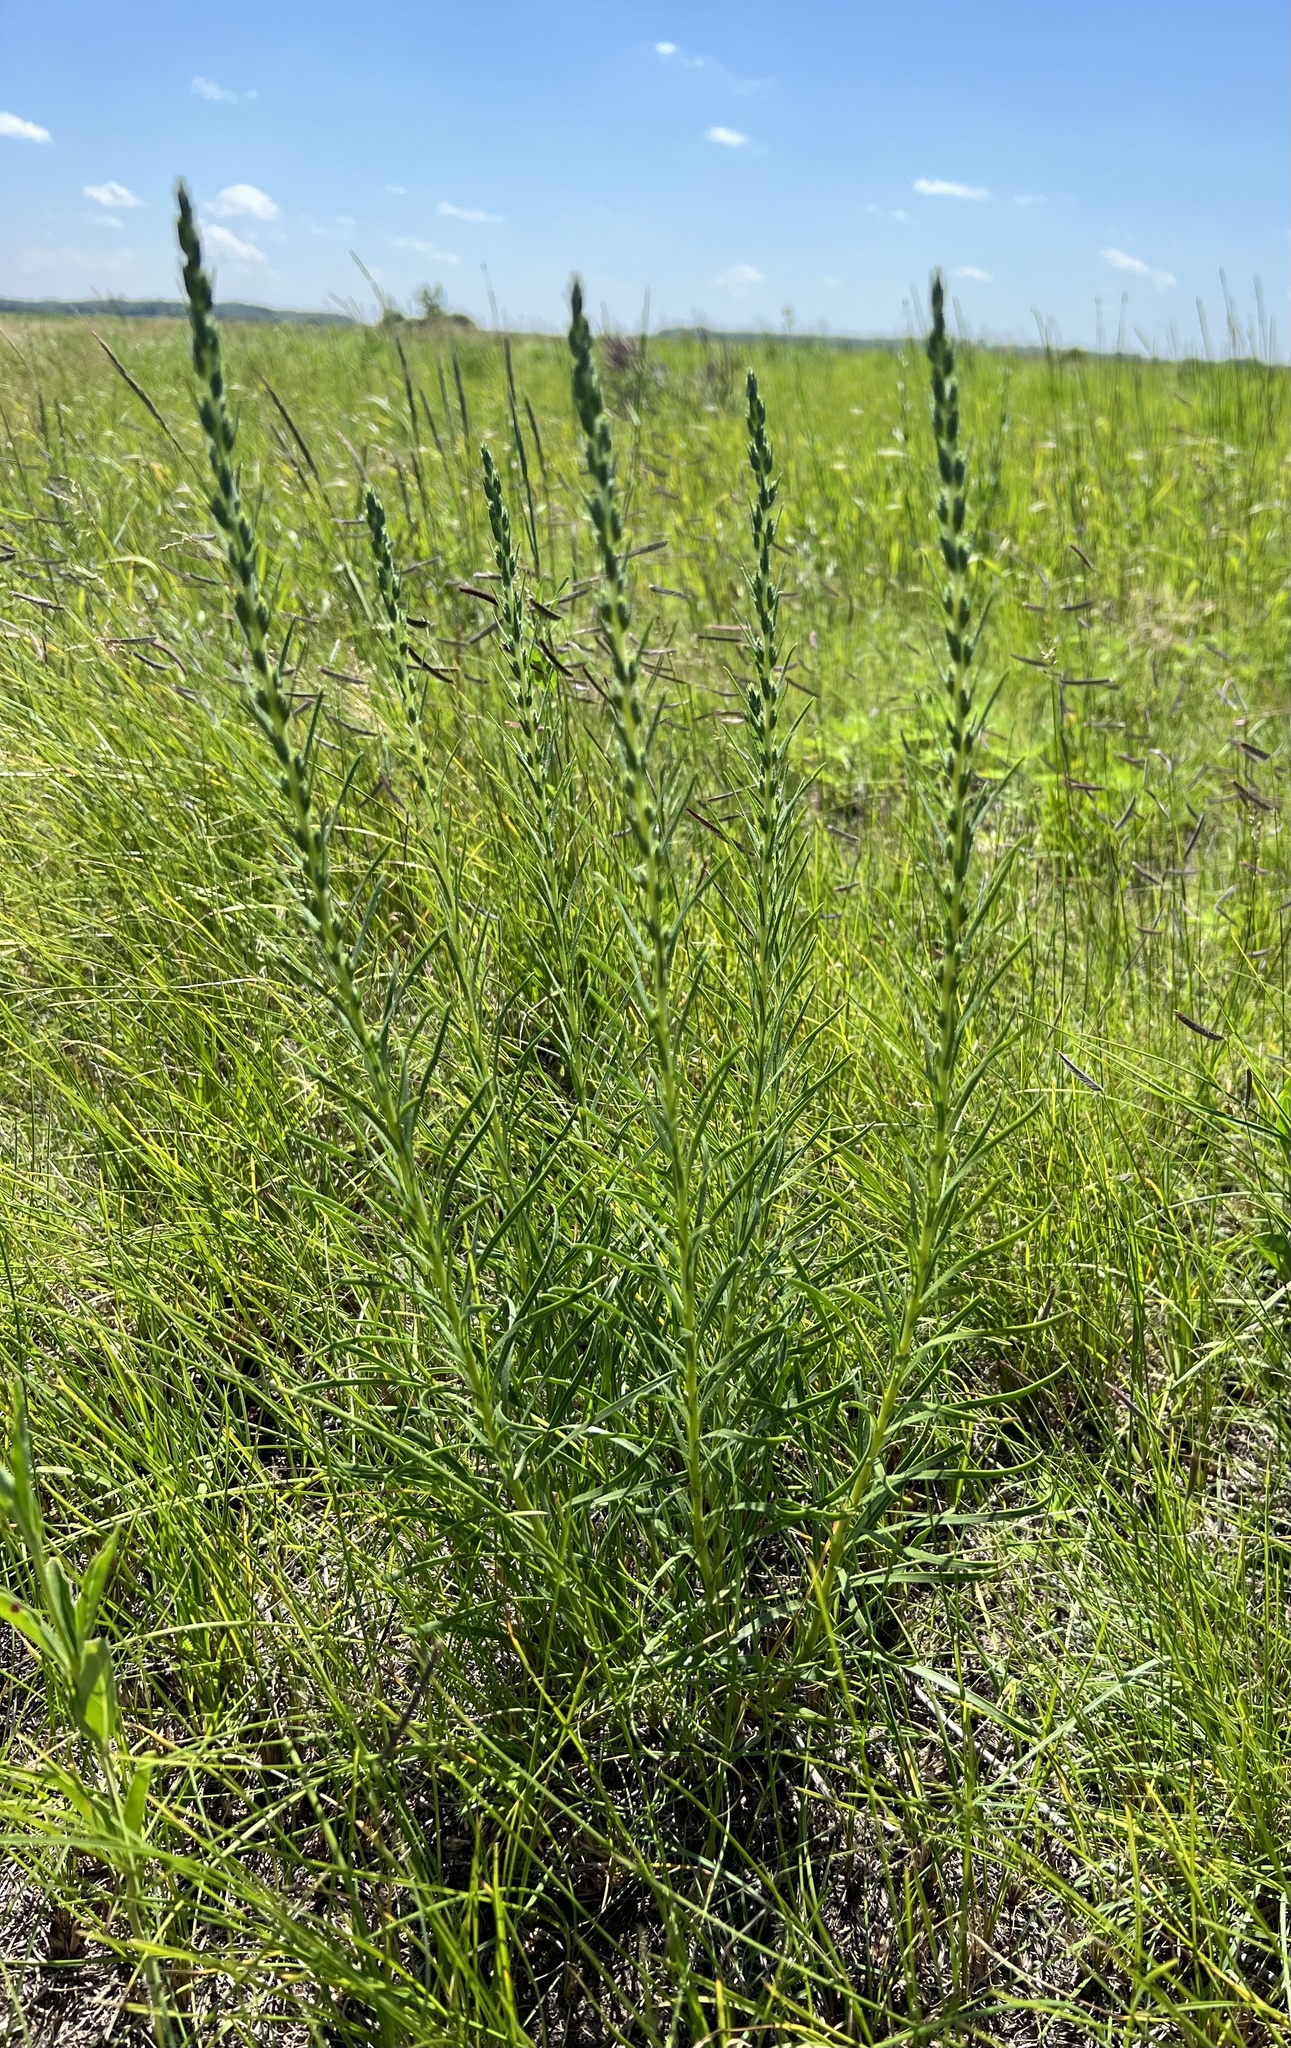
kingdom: Plantae
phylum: Tracheophyta
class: Magnoliopsida
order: Asterales
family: Asteraceae
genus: Liatris
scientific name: Liatris punctata
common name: Dotted gayfeather
